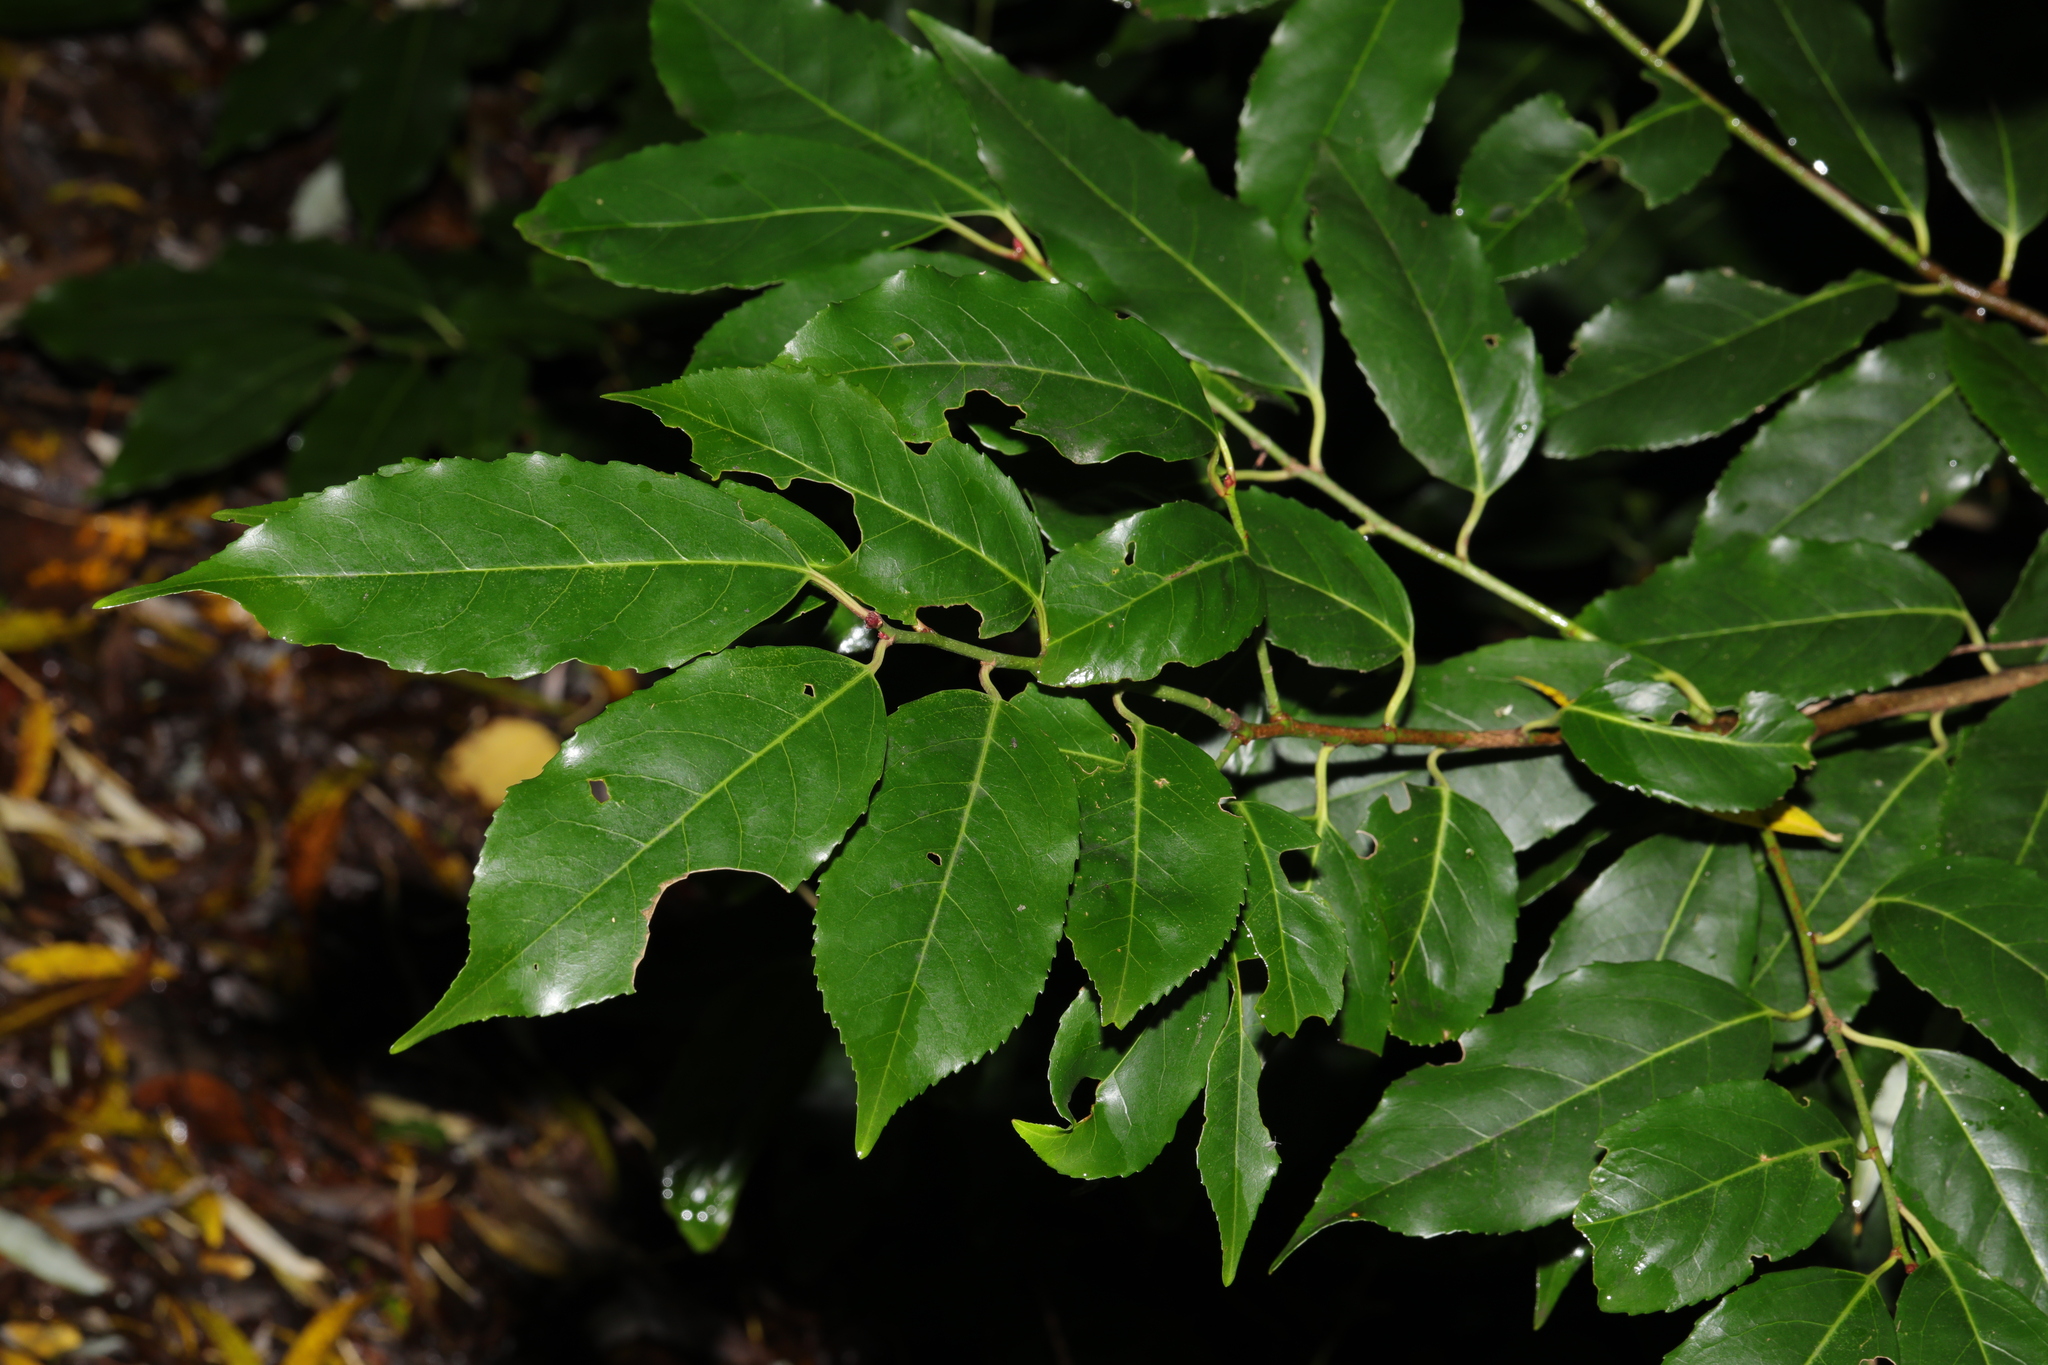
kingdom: Plantae
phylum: Tracheophyta
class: Magnoliopsida
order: Rosales
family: Rosaceae
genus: Prunus
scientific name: Prunus lusitanica
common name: Portugal laurel
